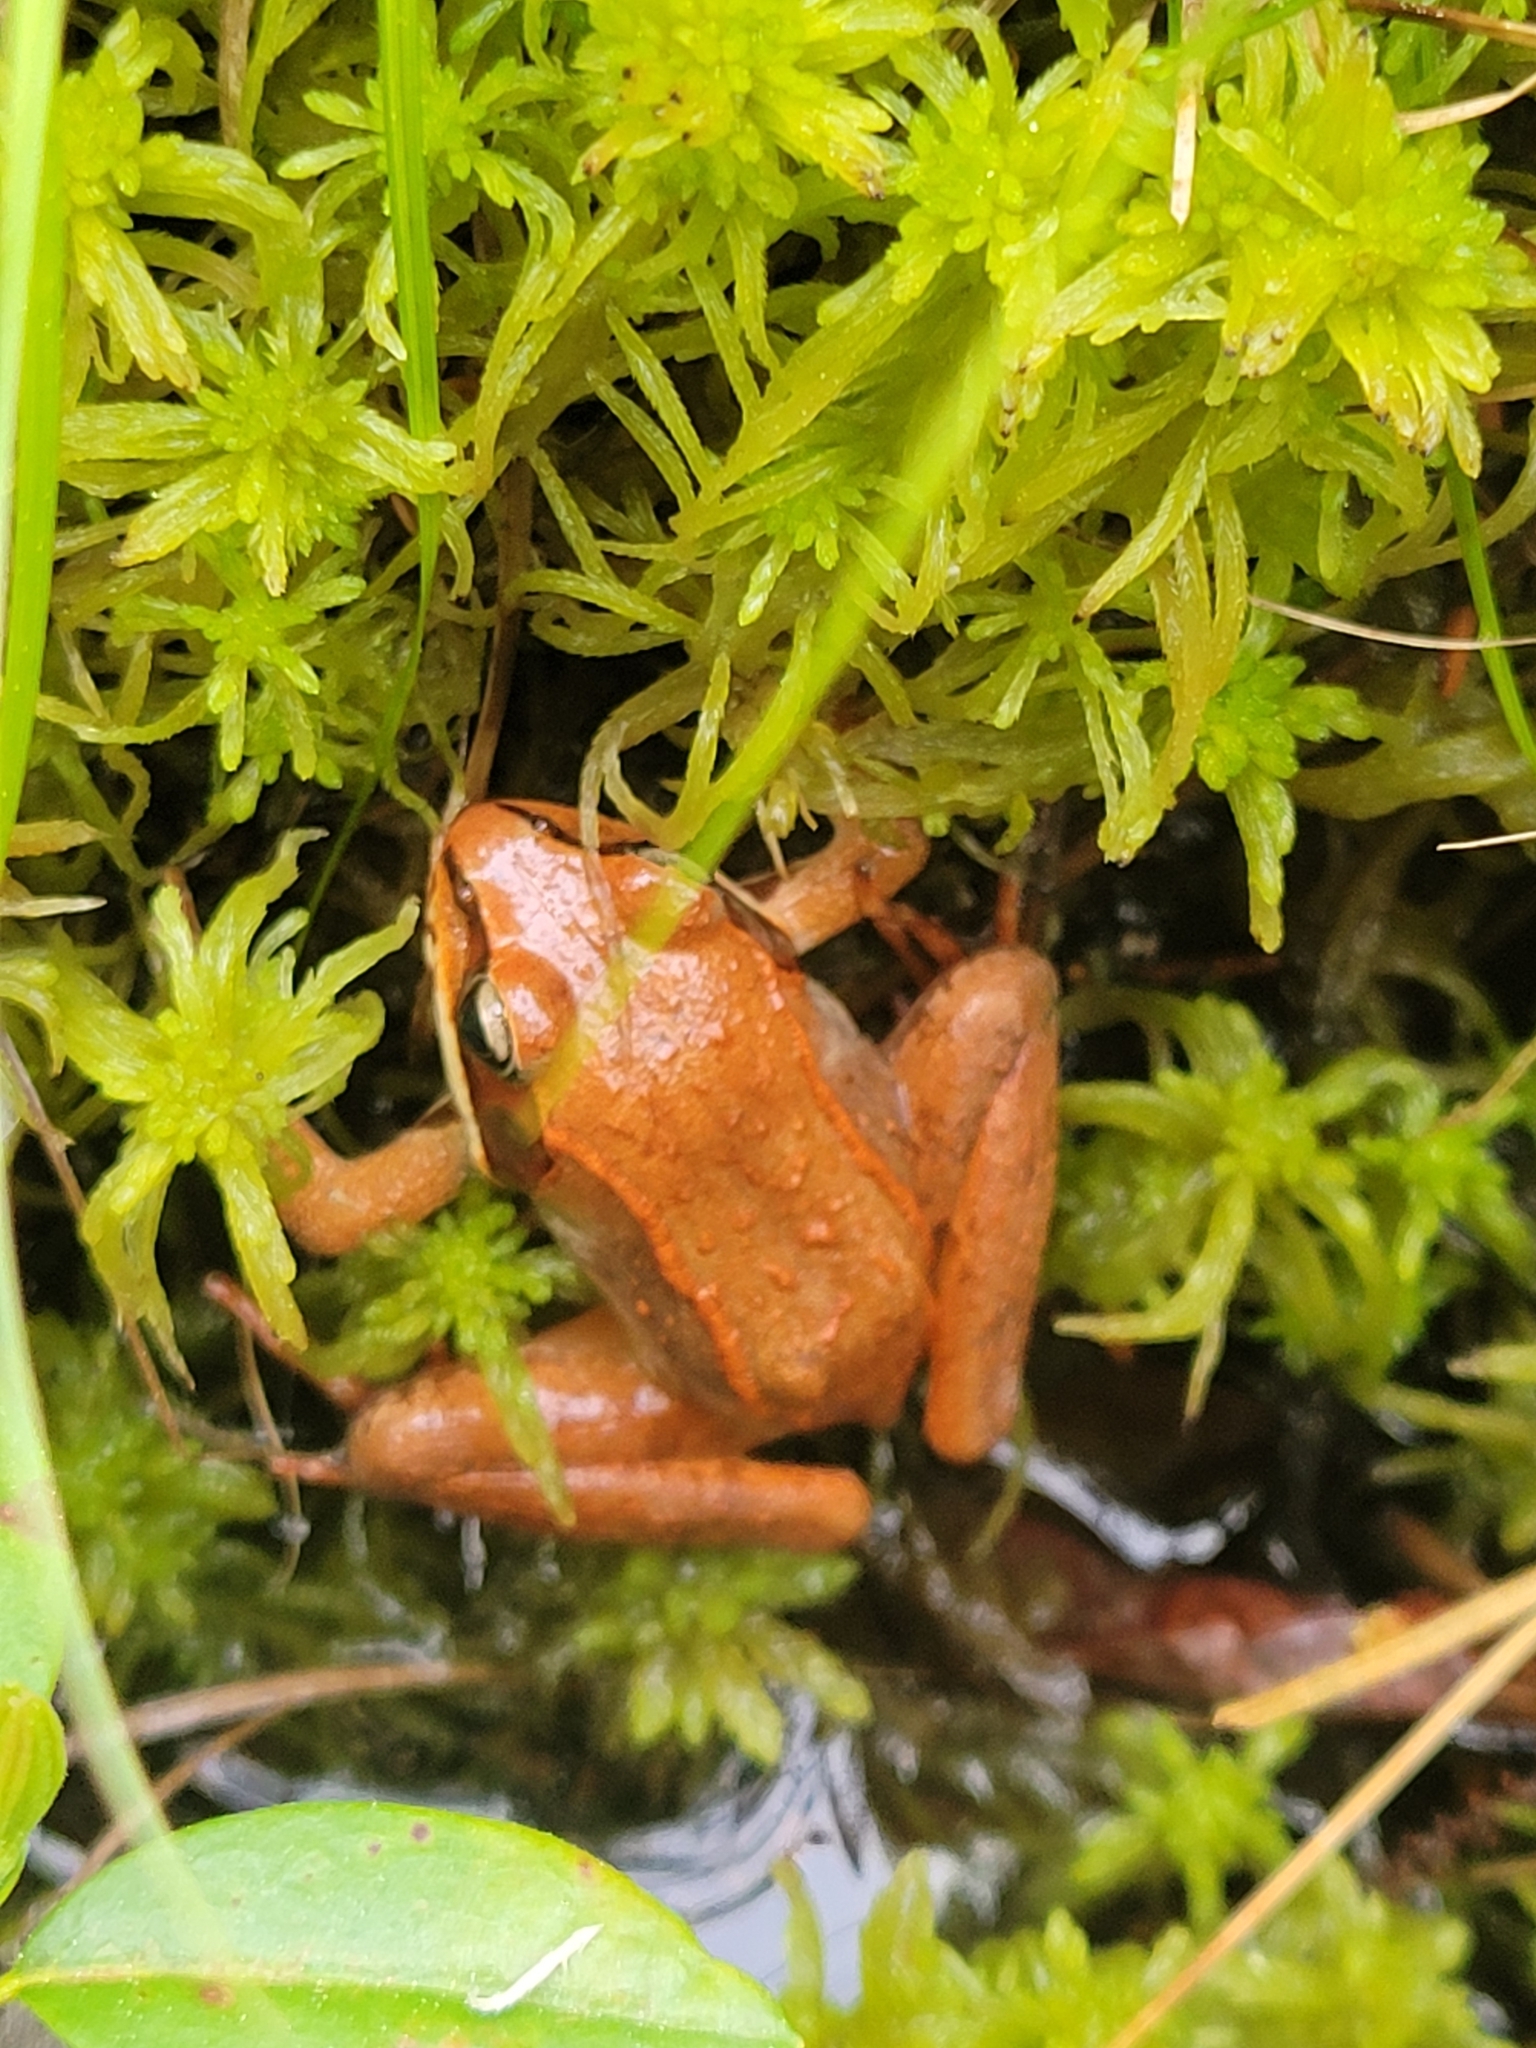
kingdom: Animalia
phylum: Chordata
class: Amphibia
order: Anura
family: Ranidae
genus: Lithobates
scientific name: Lithobates sylvaticus
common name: Wood frog
